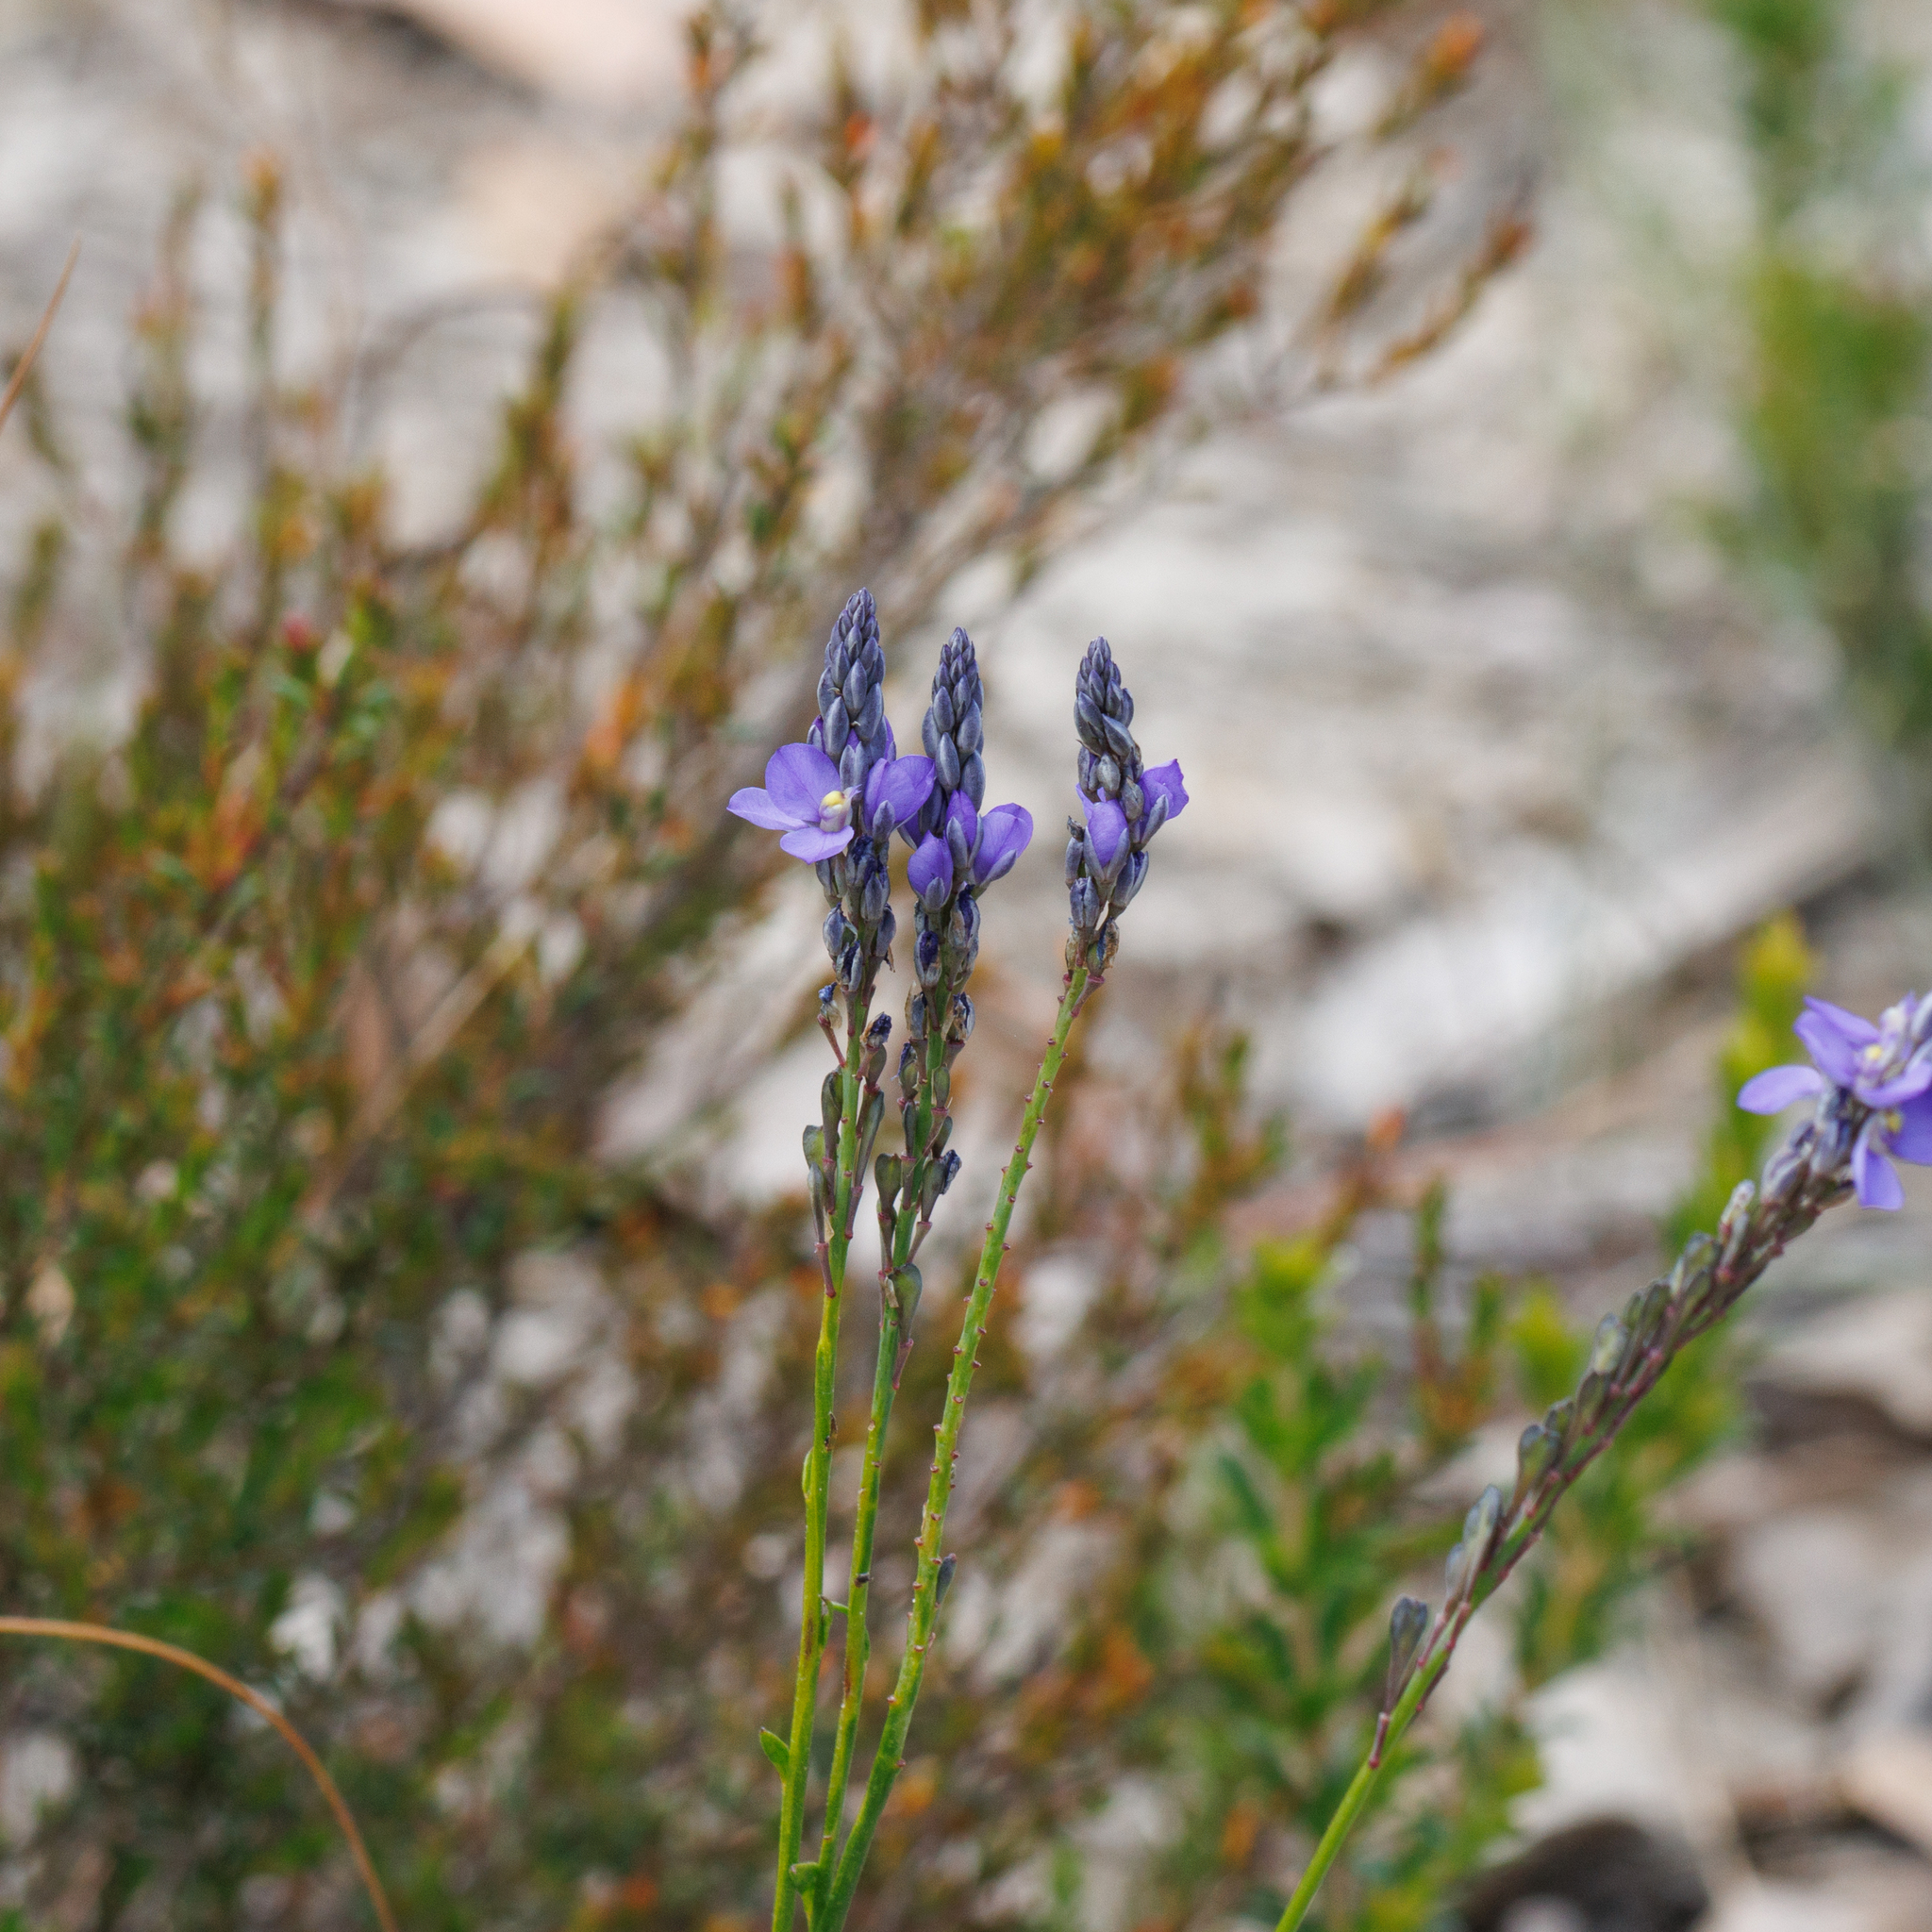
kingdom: Plantae
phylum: Tracheophyta
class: Magnoliopsida
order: Fabales
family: Polygalaceae
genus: Comesperma
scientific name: Comesperma calymega
